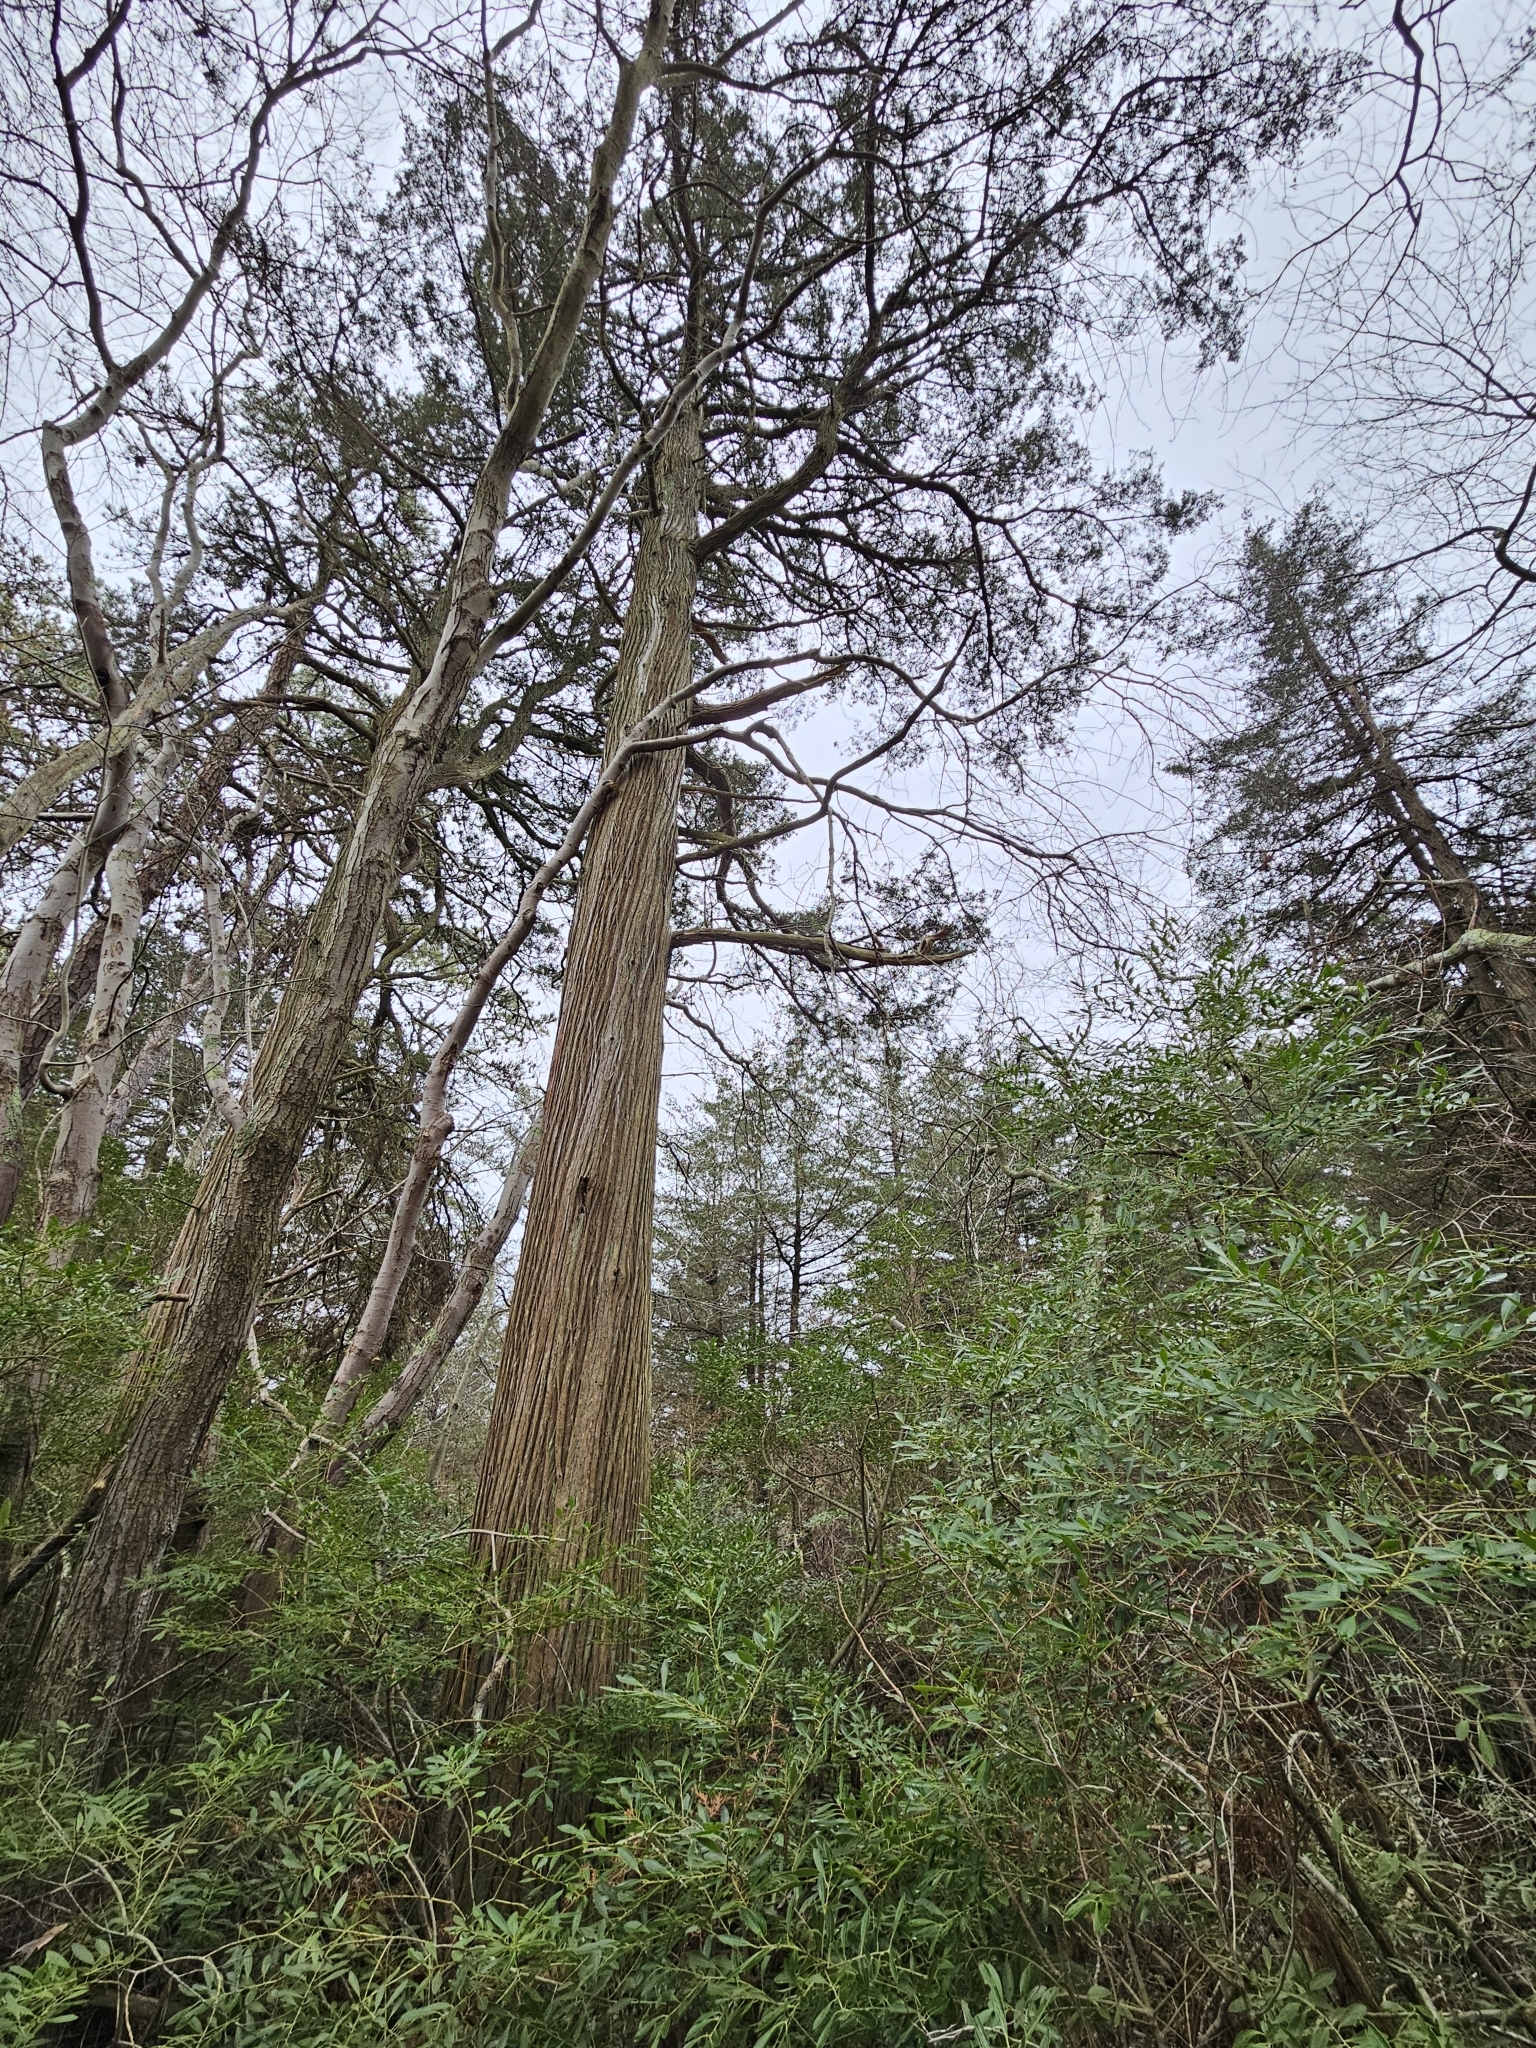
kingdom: Plantae
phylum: Tracheophyta
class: Pinopsida
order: Pinales
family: Cupressaceae
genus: Chamaecyparis
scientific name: Chamaecyparis thyoides
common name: Atlantic white cedar
